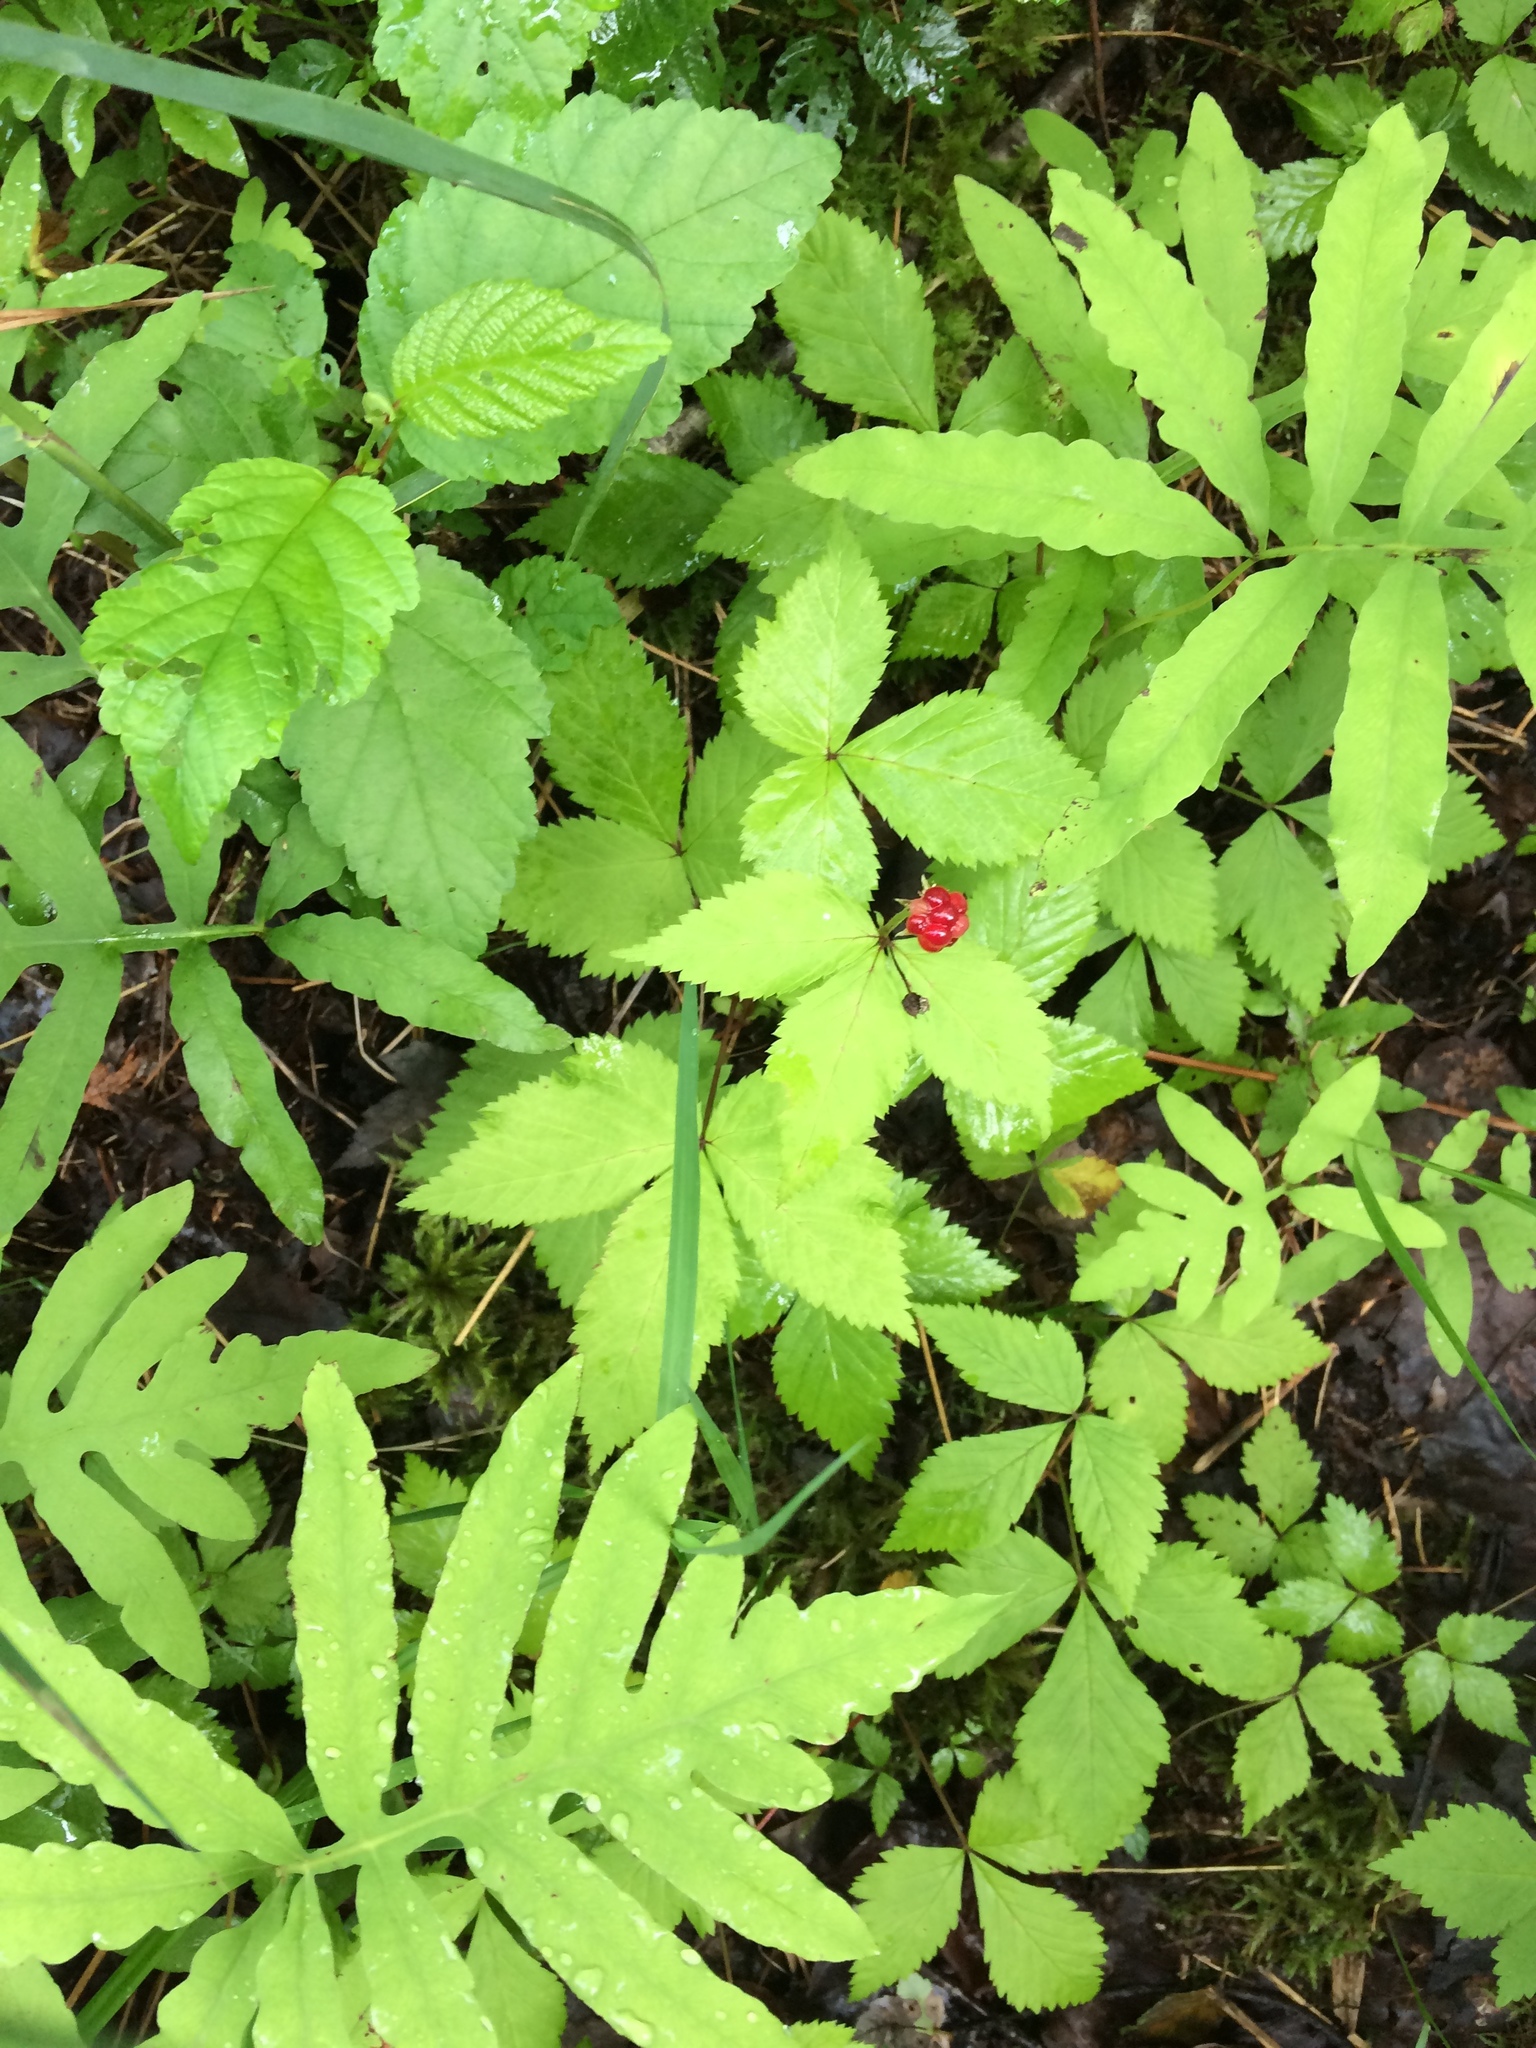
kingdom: Plantae
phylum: Tracheophyta
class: Magnoliopsida
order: Rosales
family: Rosaceae
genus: Rubus
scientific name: Rubus pubescens
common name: Dwarf raspberry
